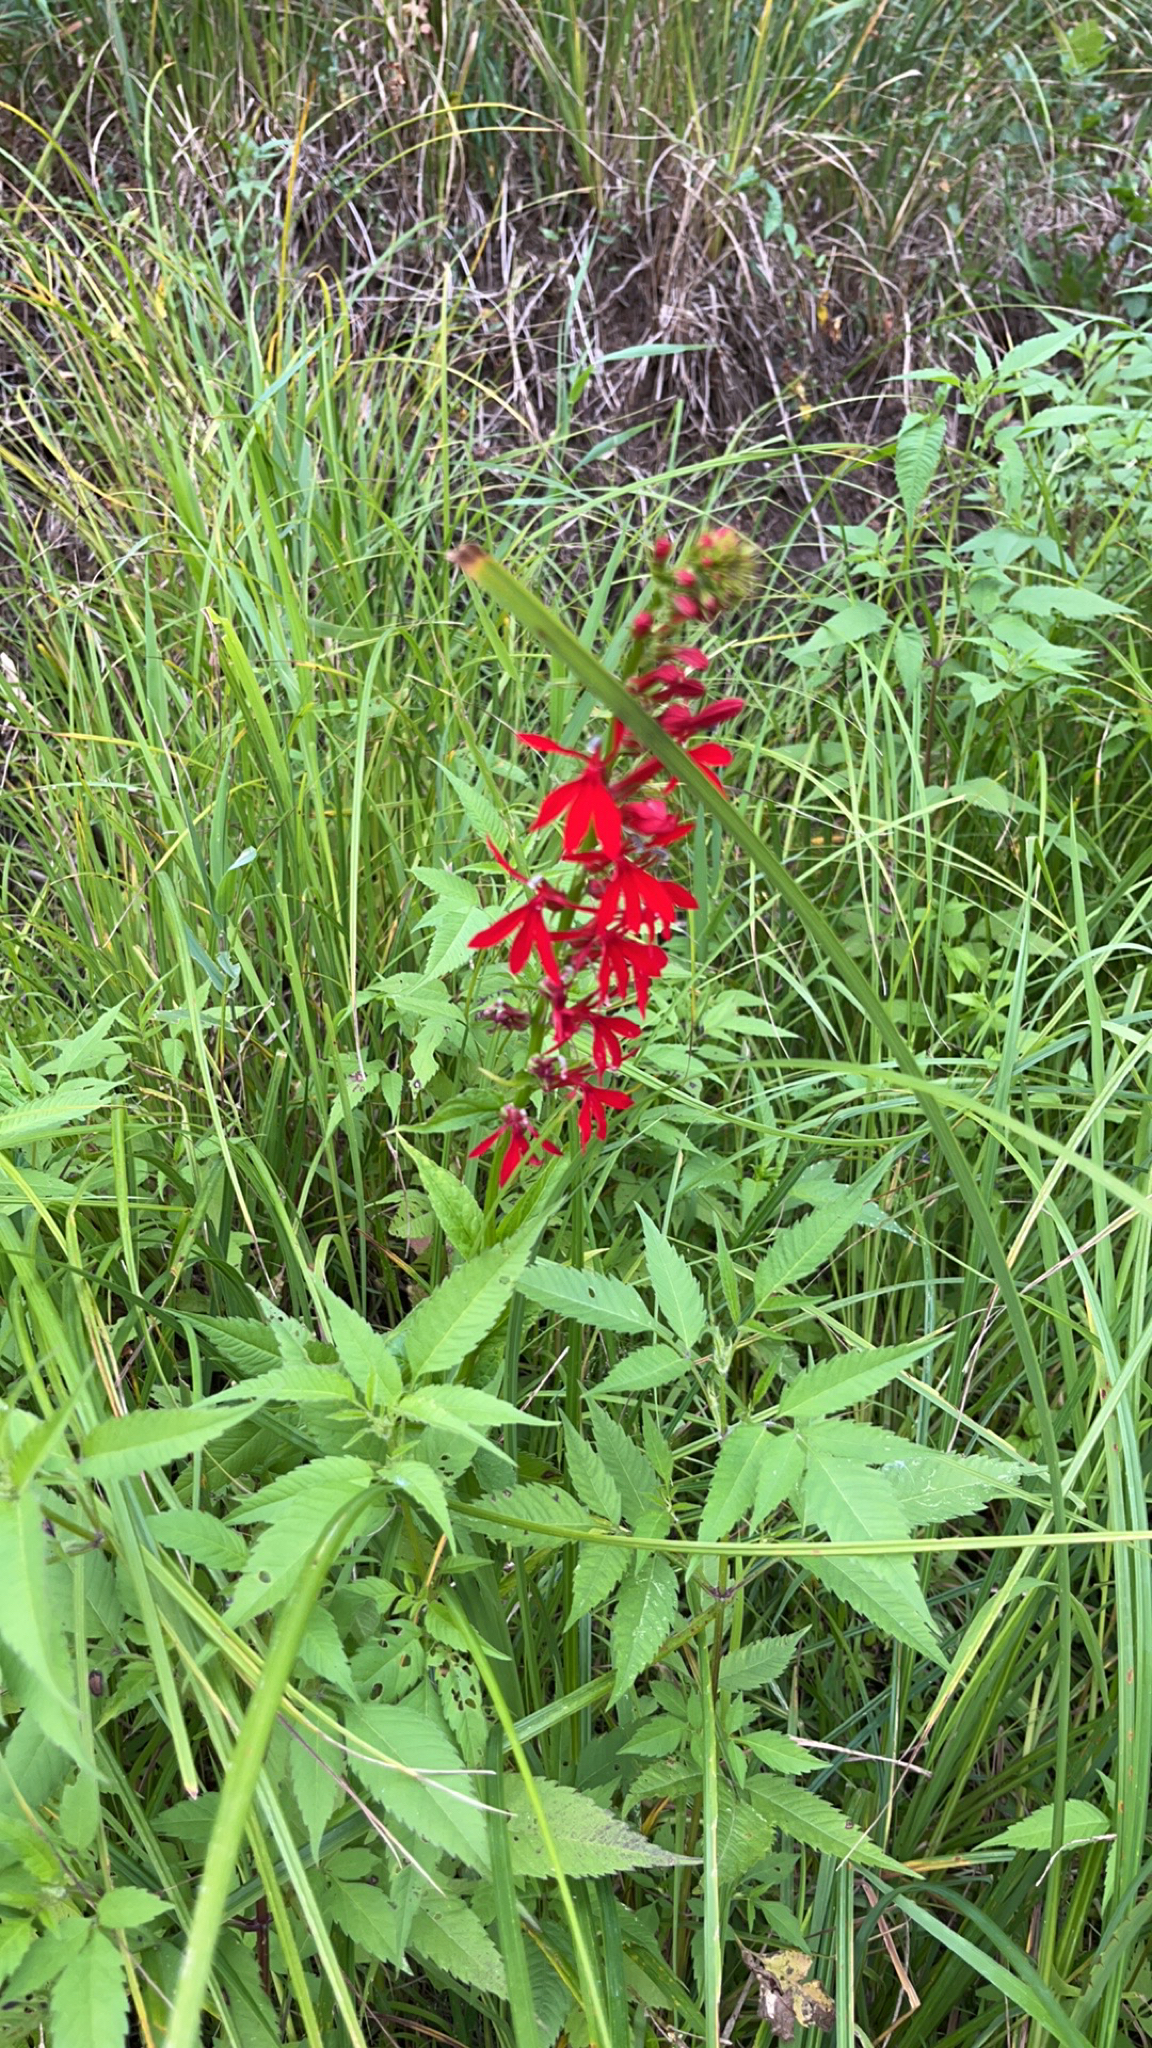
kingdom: Plantae
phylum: Tracheophyta
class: Magnoliopsida
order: Asterales
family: Campanulaceae
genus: Lobelia
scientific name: Lobelia cardinalis
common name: Cardinal flower
